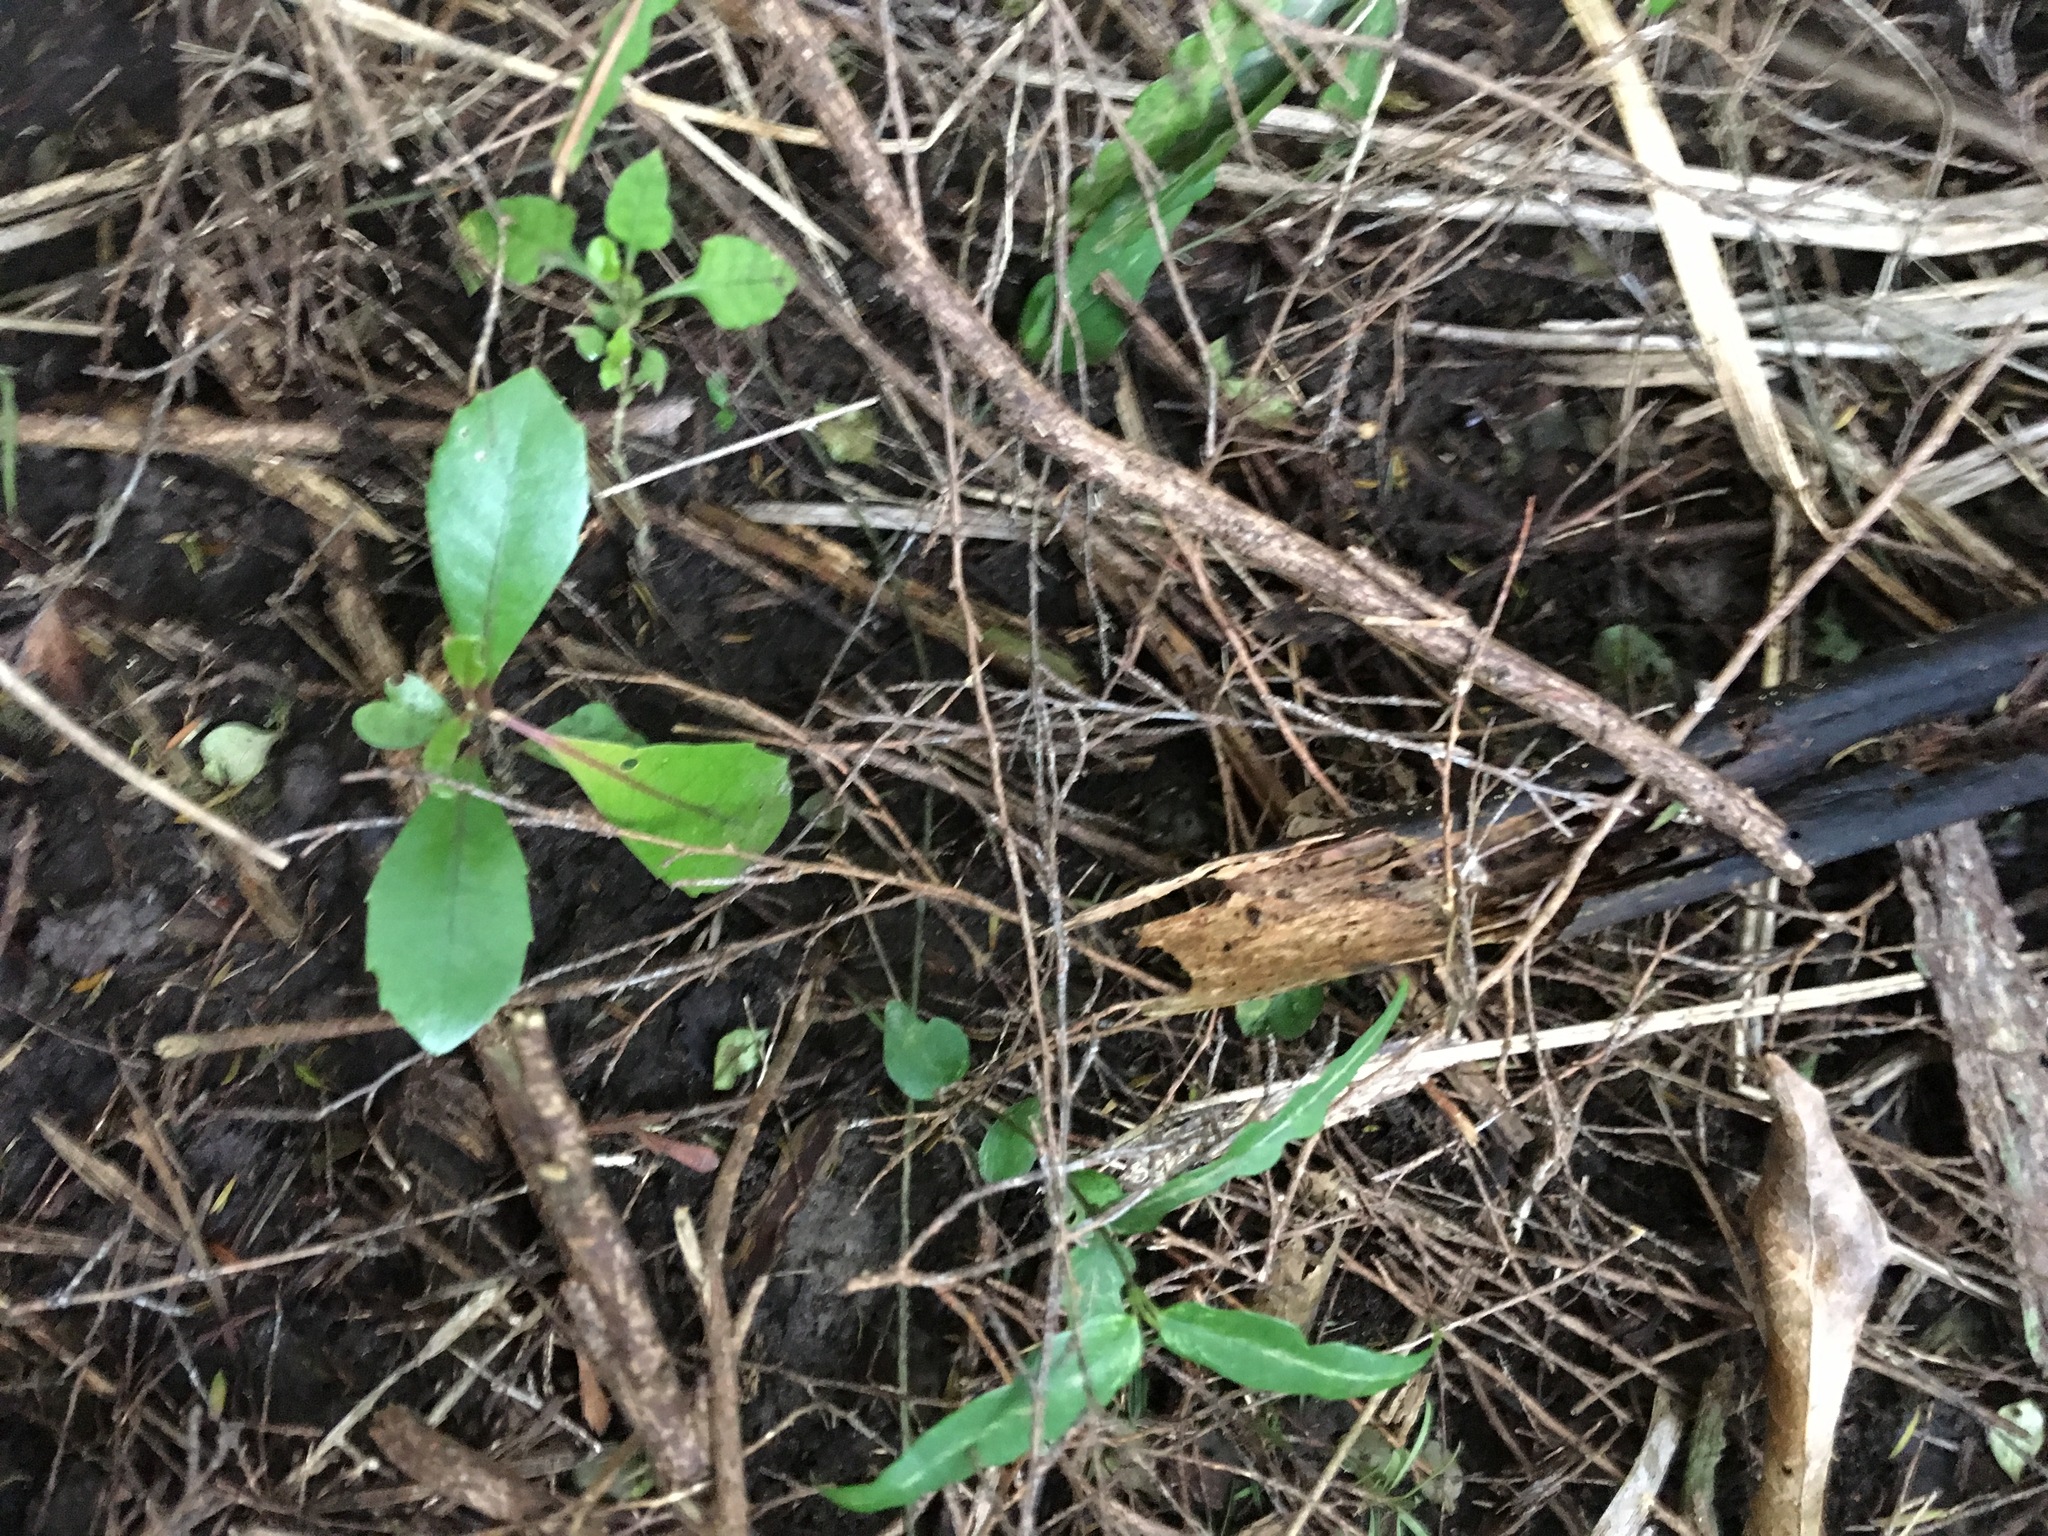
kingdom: Plantae
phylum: Tracheophyta
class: Magnoliopsida
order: Gentianales
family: Apocynaceae
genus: Parsonsia
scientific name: Parsonsia heterophylla
